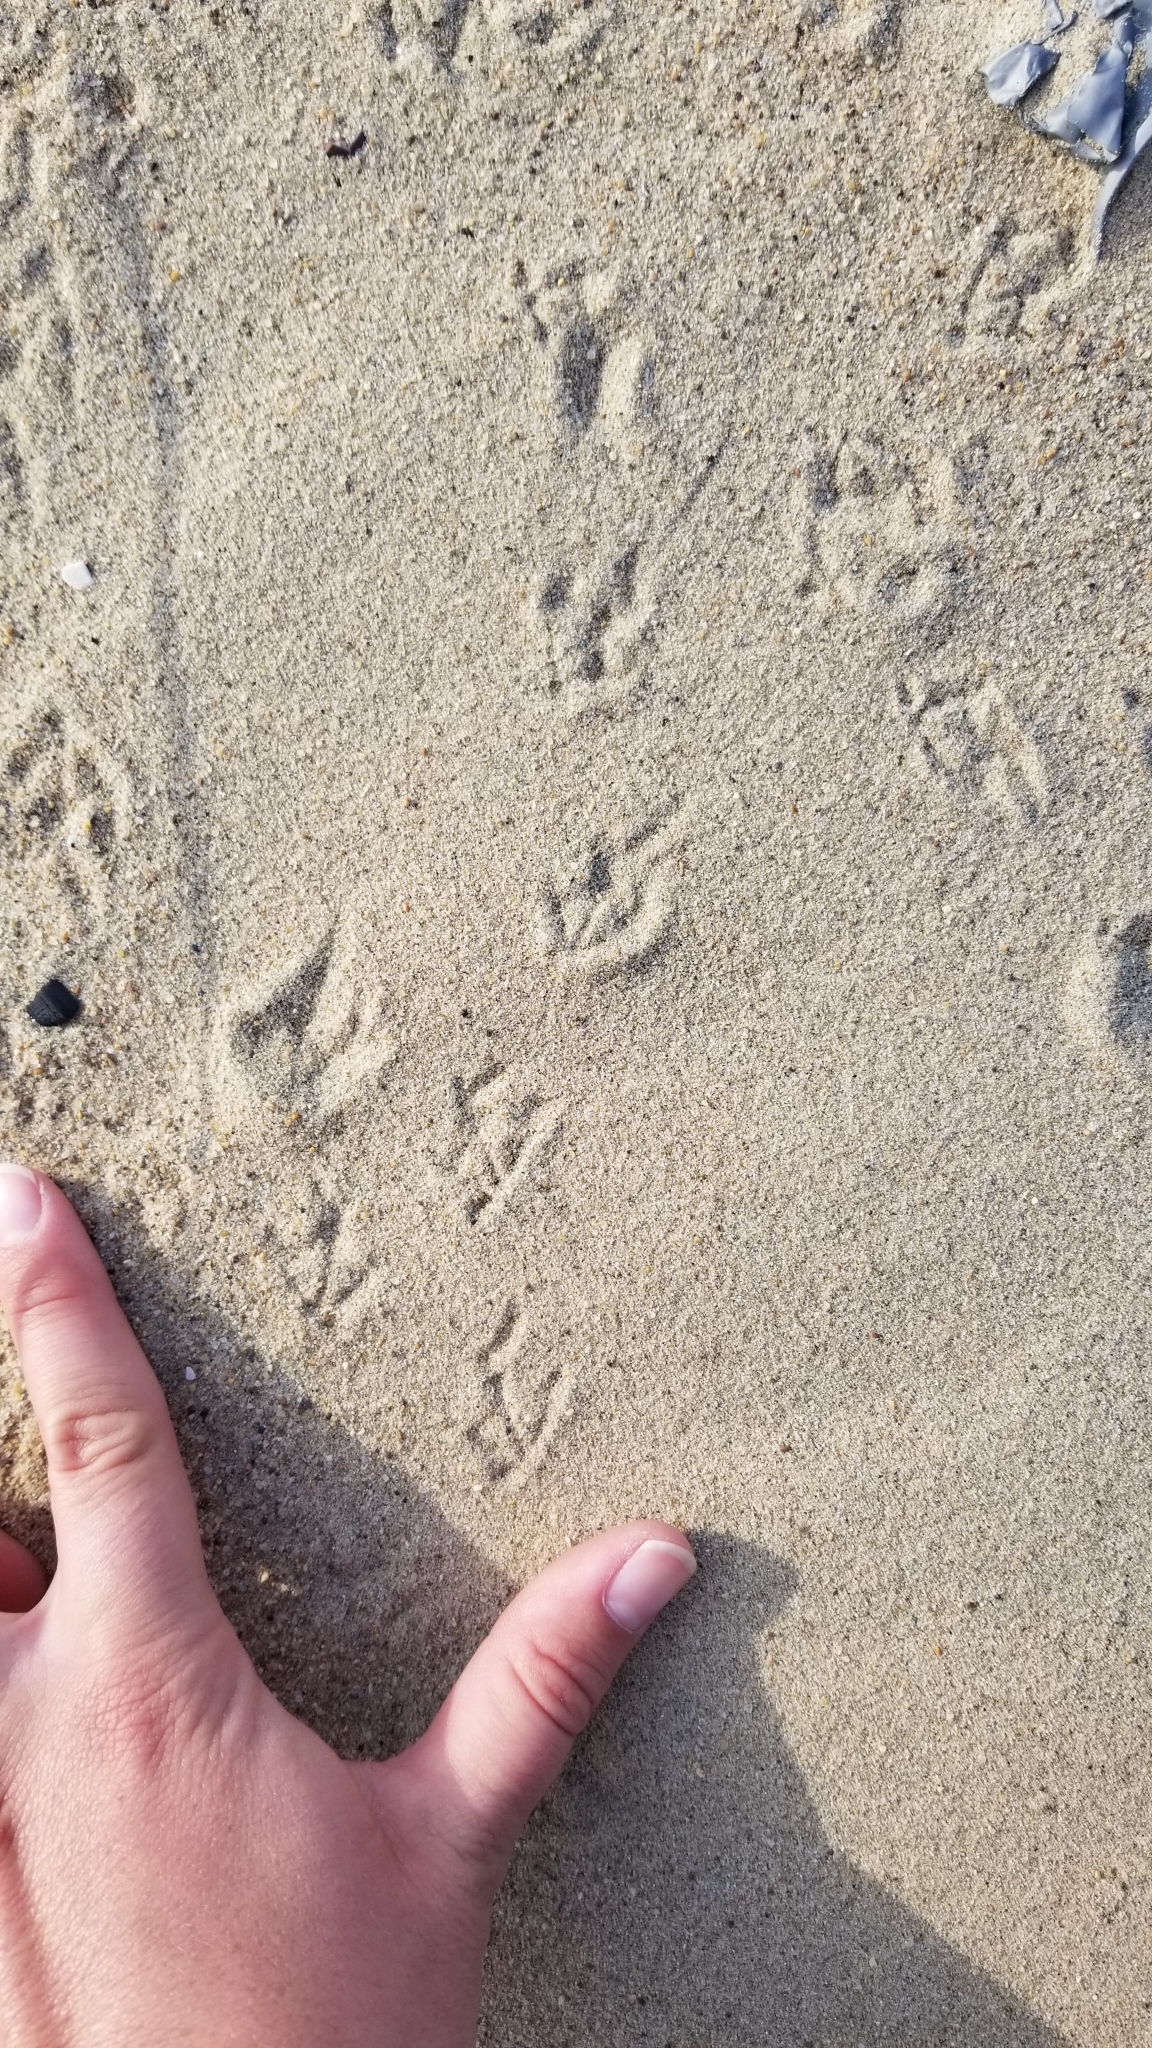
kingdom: Animalia
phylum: Chordata
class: Aves
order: Charadriiformes
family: Laridae
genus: Sternula
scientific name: Sternula antillarum
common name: Least tern
